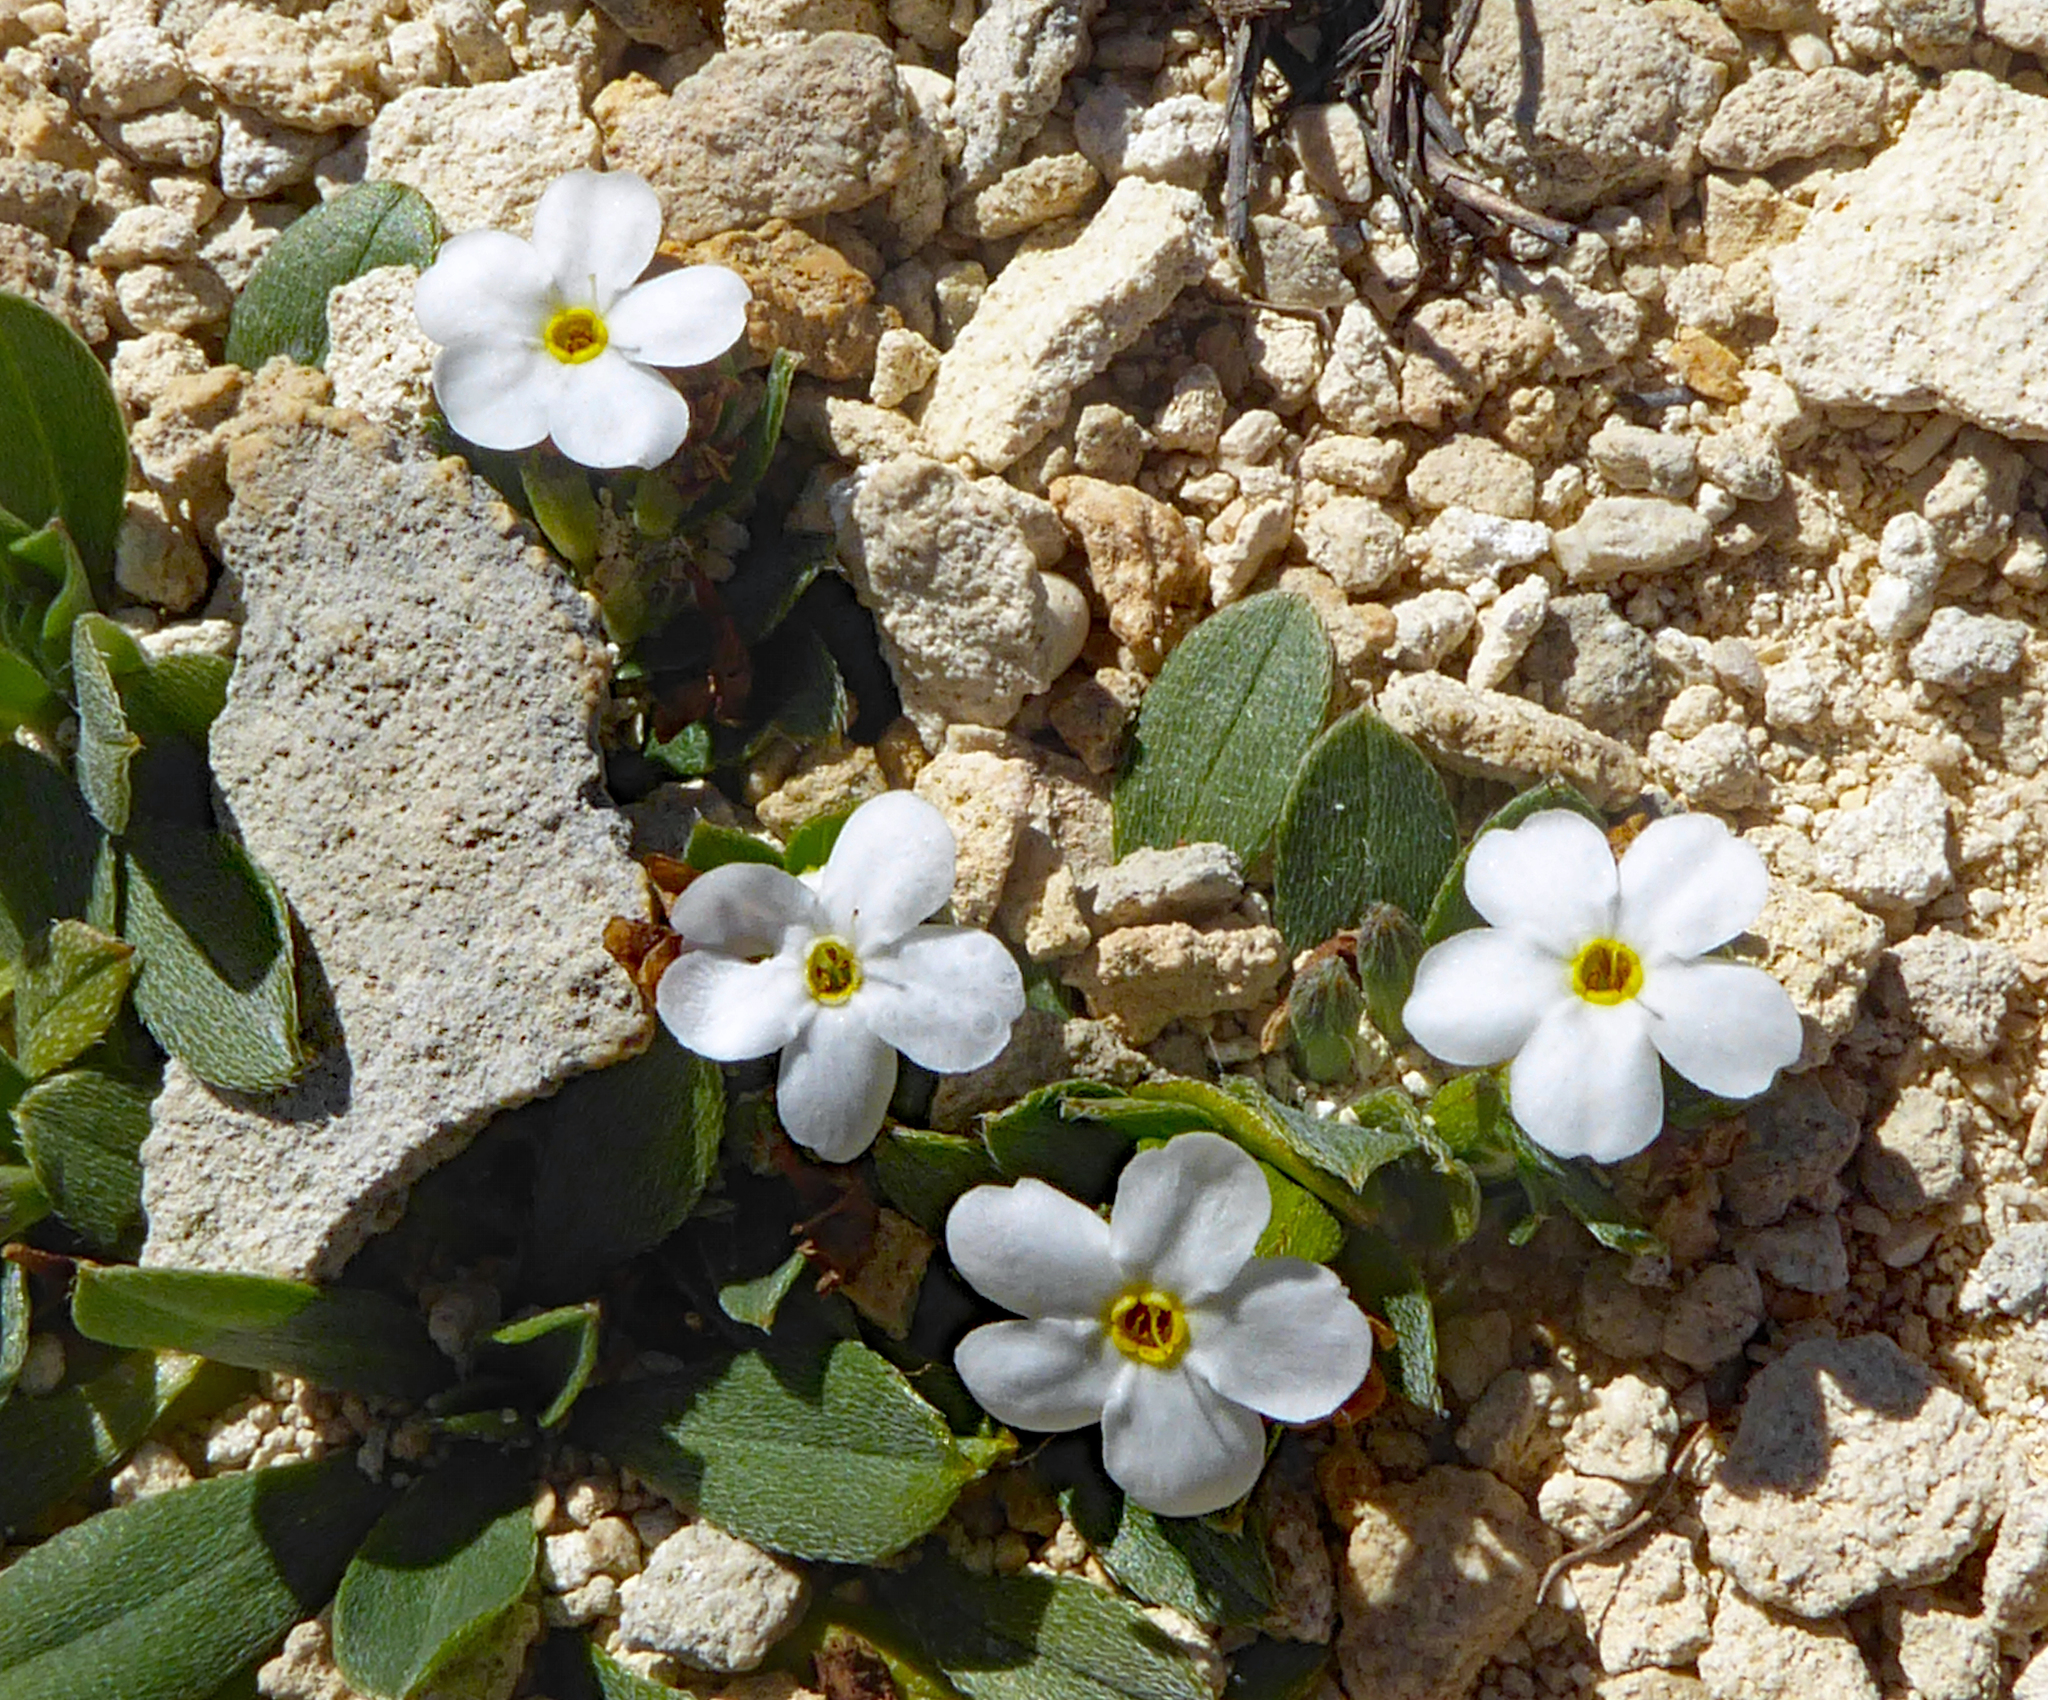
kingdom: Plantae
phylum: Tracheophyta
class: Magnoliopsida
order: Boraginales
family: Boraginaceae
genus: Myosotis
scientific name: Myosotis colensoi
